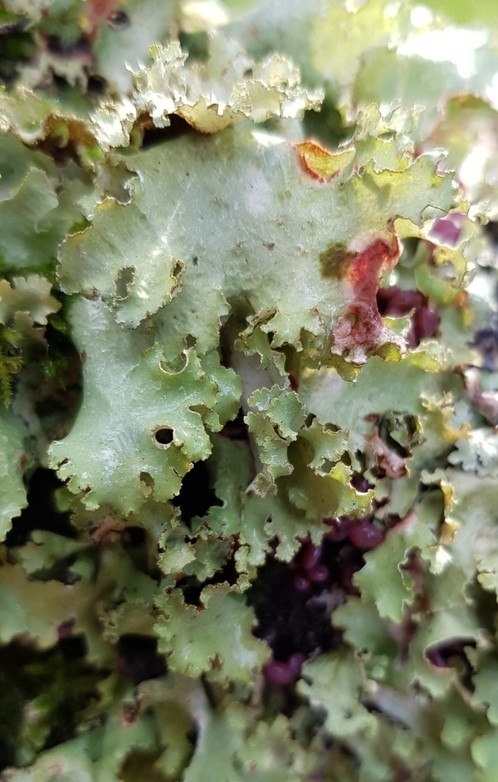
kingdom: Fungi
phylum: Ascomycota
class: Lecanoromycetes
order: Lecanorales
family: Parmeliaceae
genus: Platismatia
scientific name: Platismatia glauca
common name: Varied rag lichen
